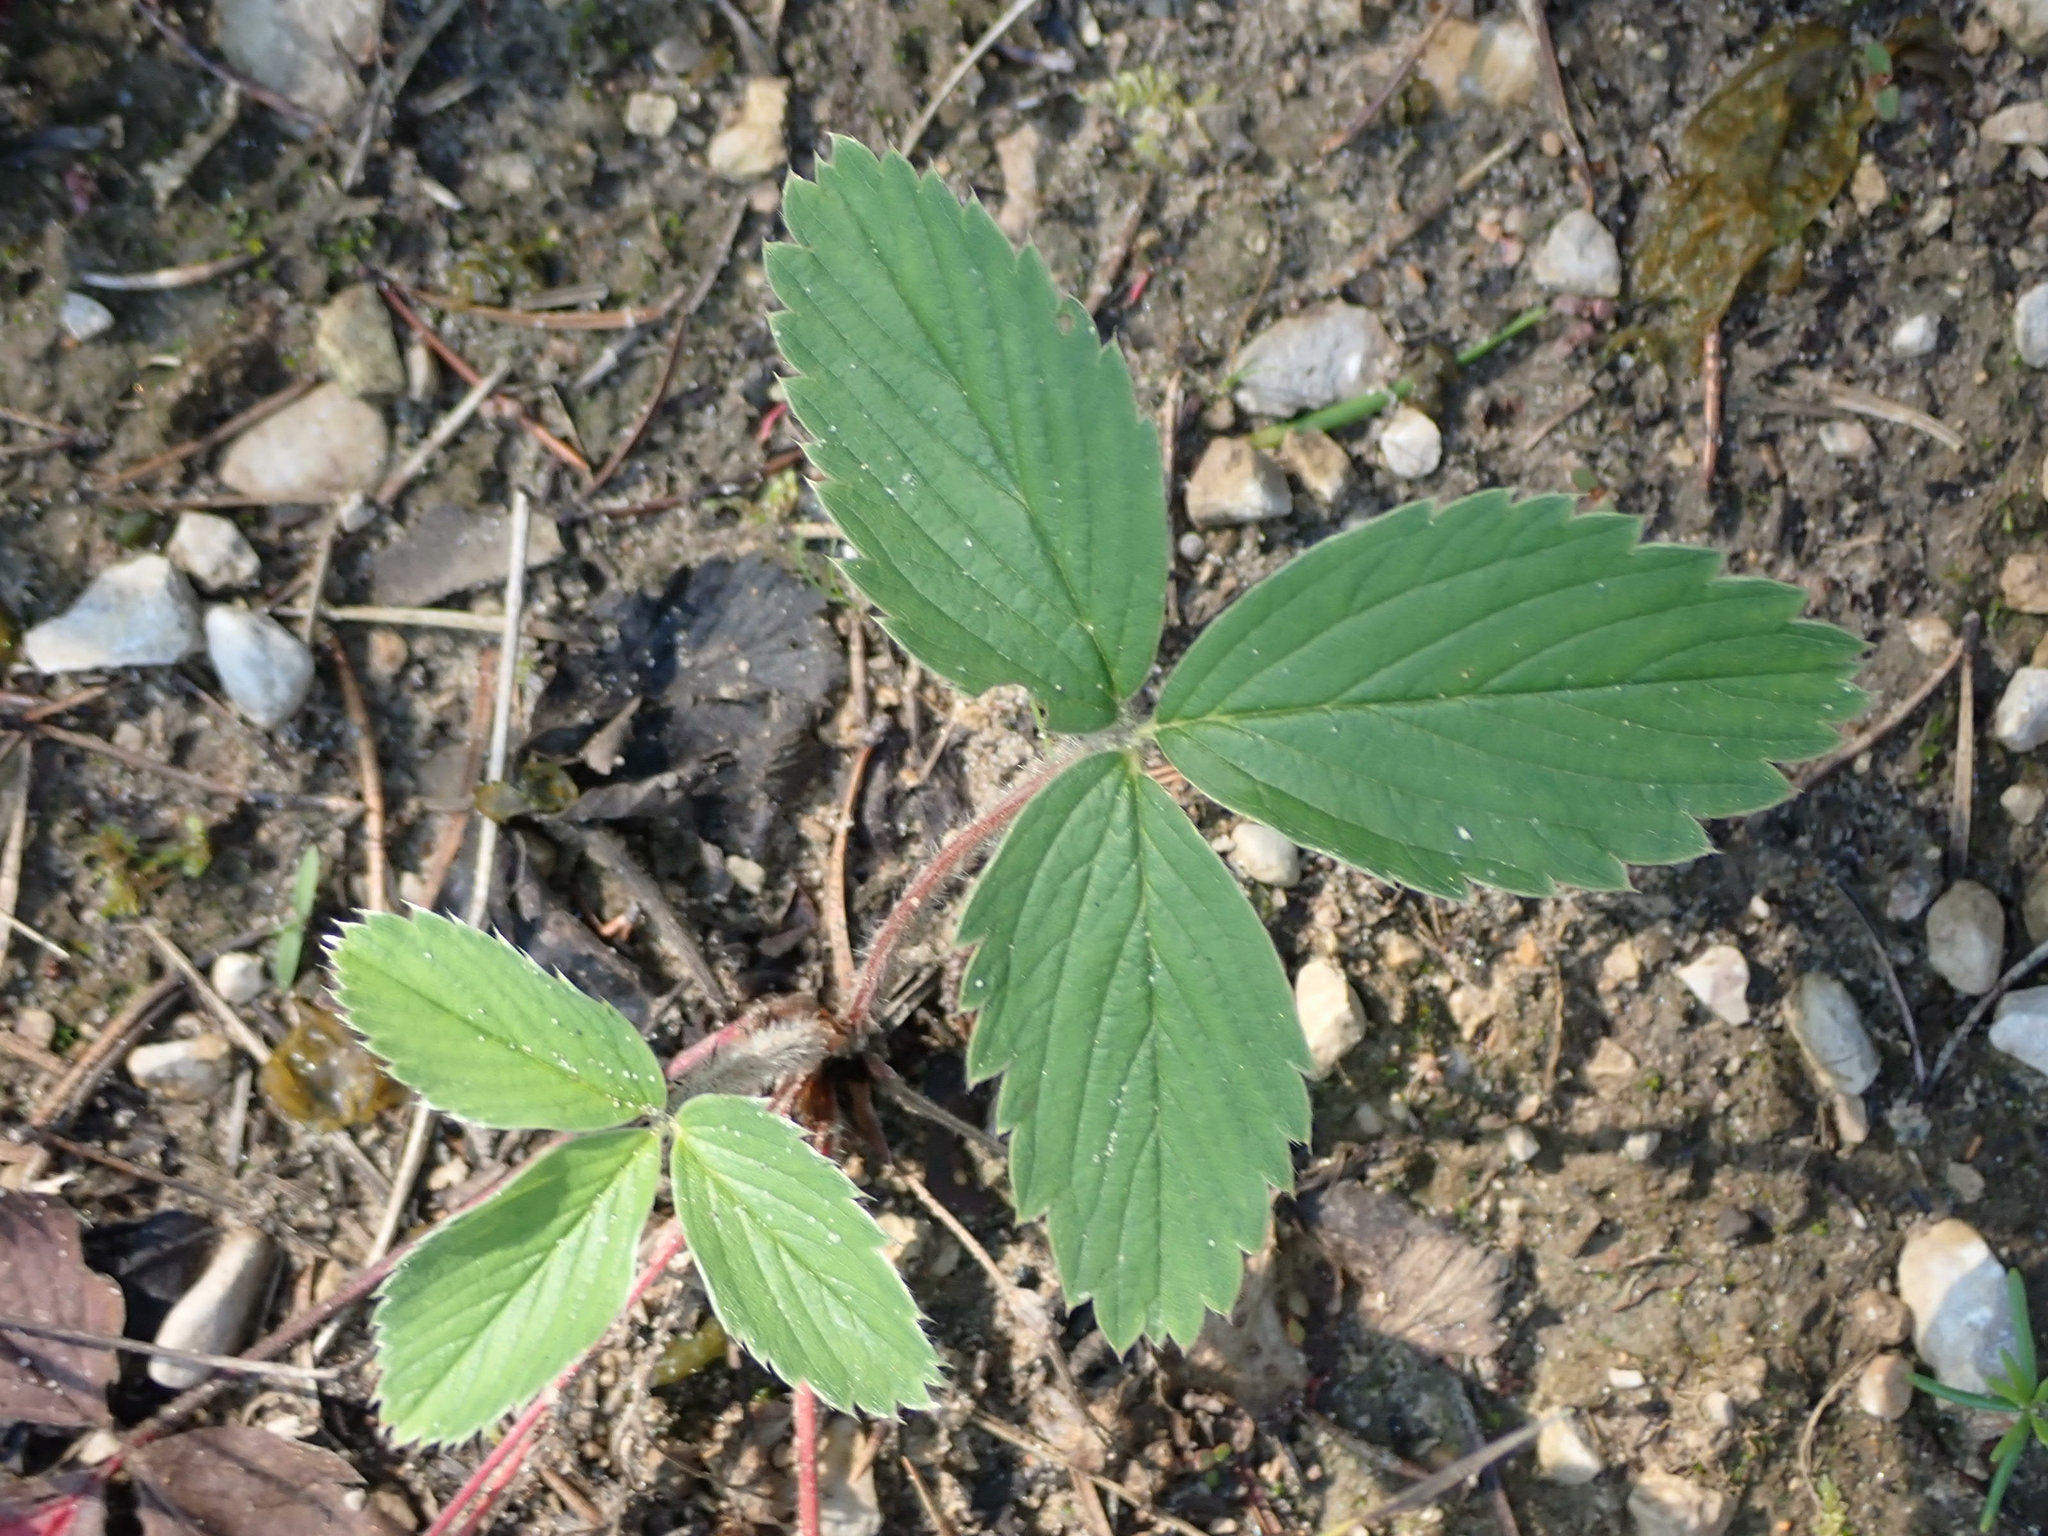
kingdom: Plantae
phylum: Tracheophyta
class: Magnoliopsida
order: Rosales
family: Rosaceae
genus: Fragaria
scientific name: Fragaria virginiana
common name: Thickleaved wild strawberry
